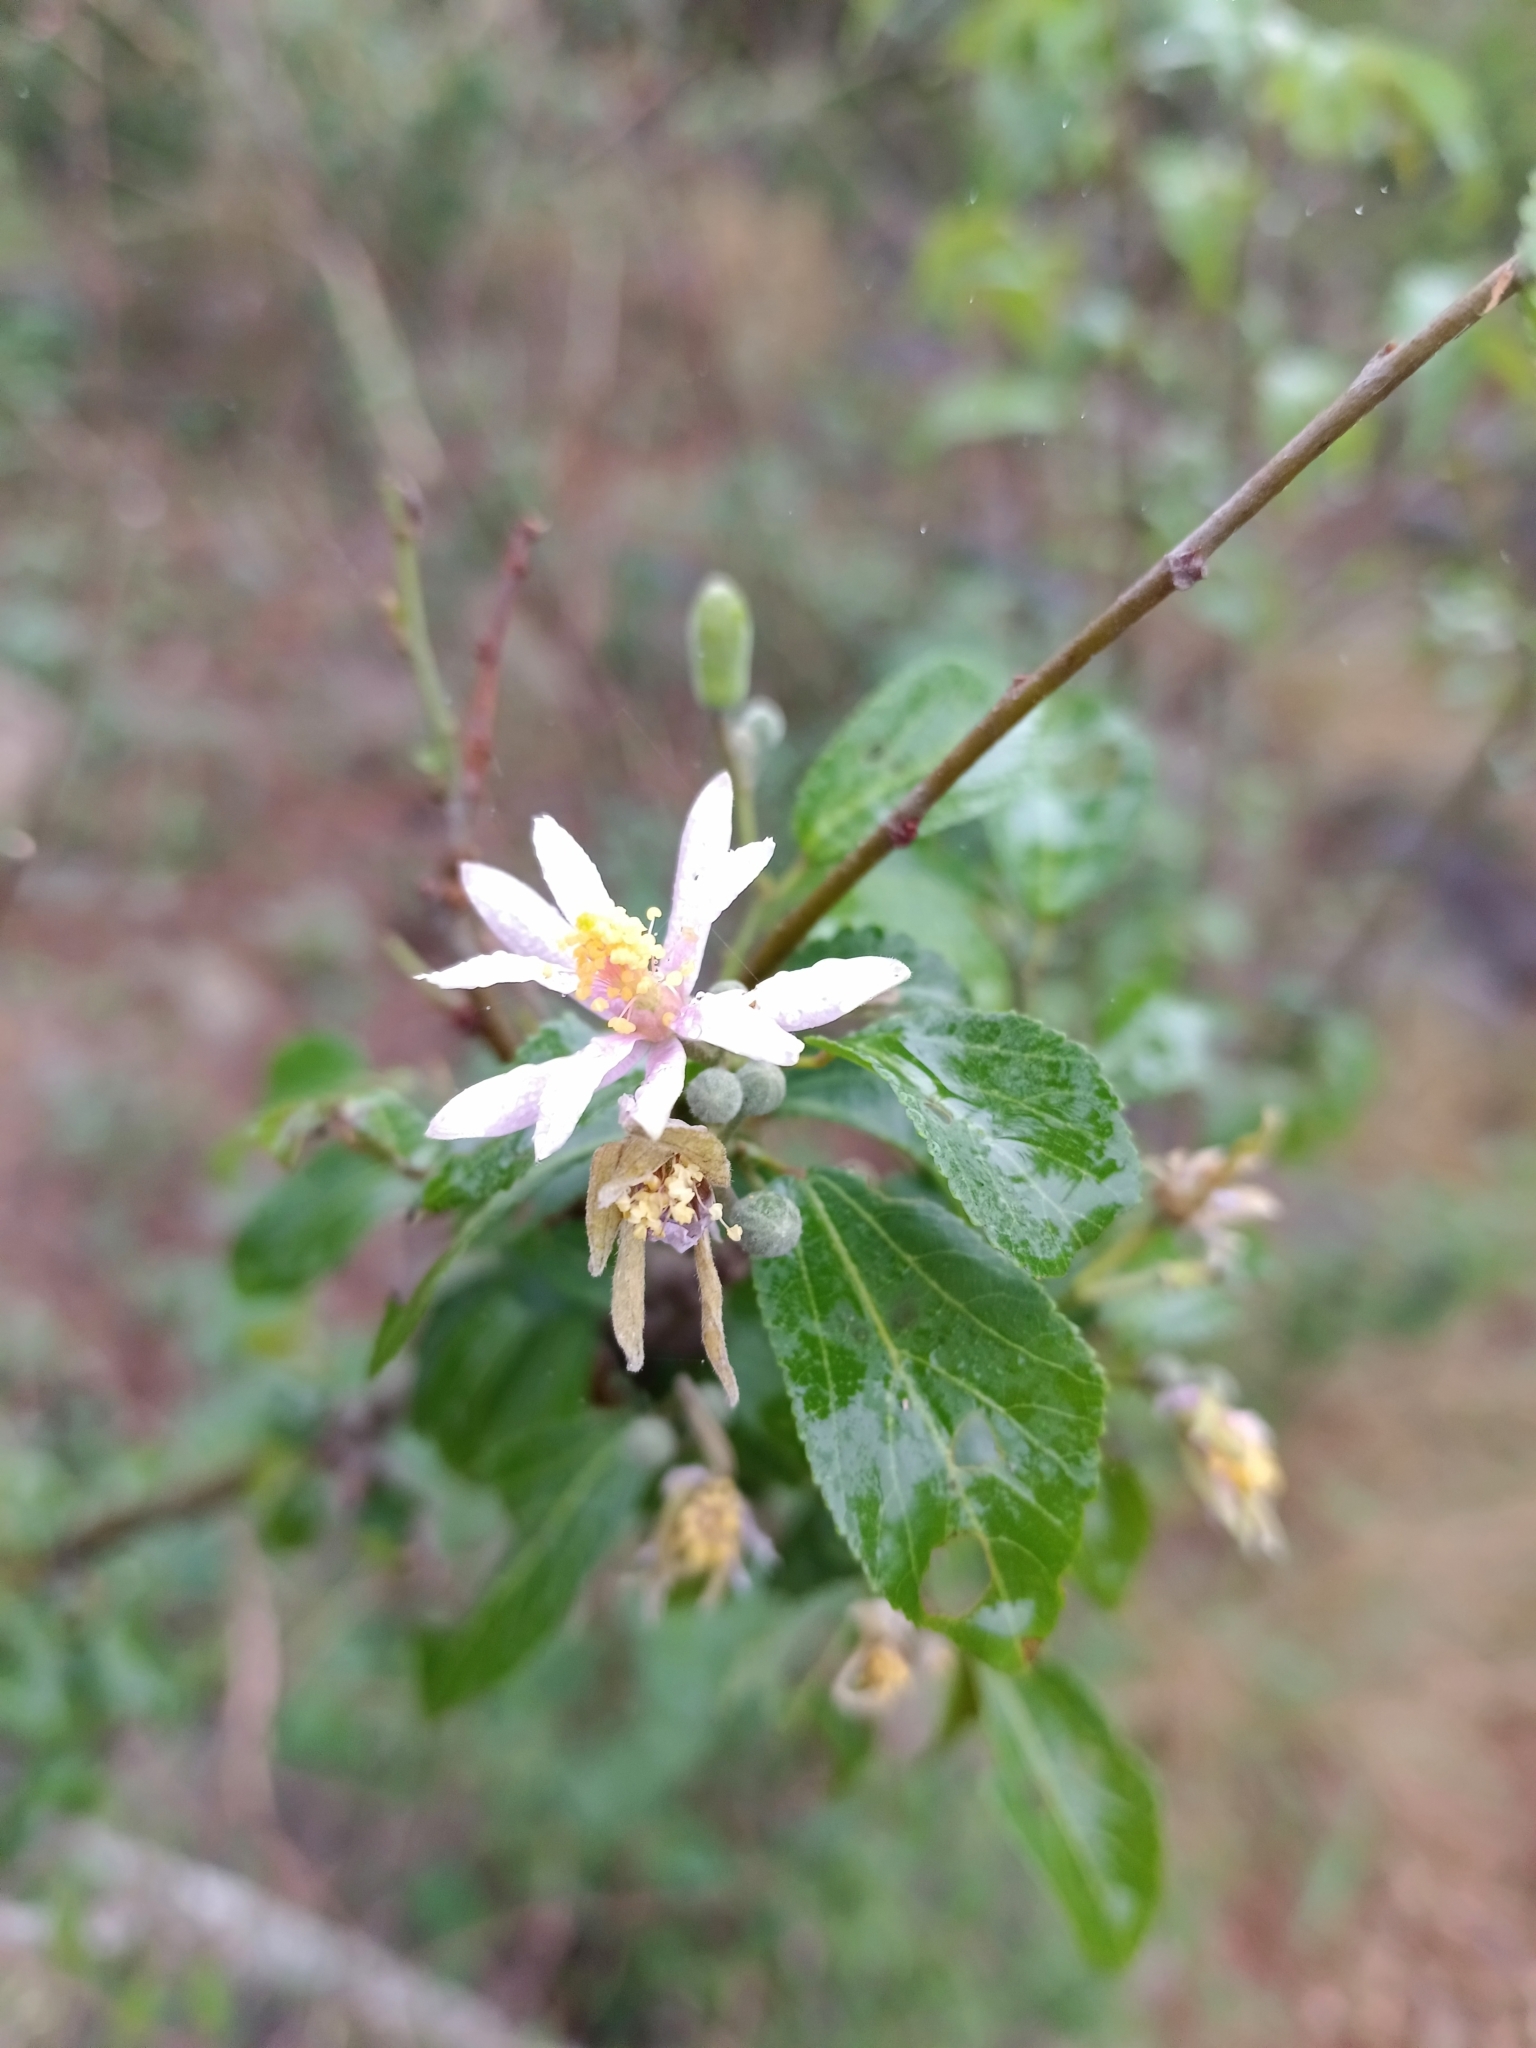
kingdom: Plantae
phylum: Tracheophyta
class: Magnoliopsida
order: Malvales
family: Malvaceae
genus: Grewia
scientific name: Grewia occidentalis
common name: Crossberry
